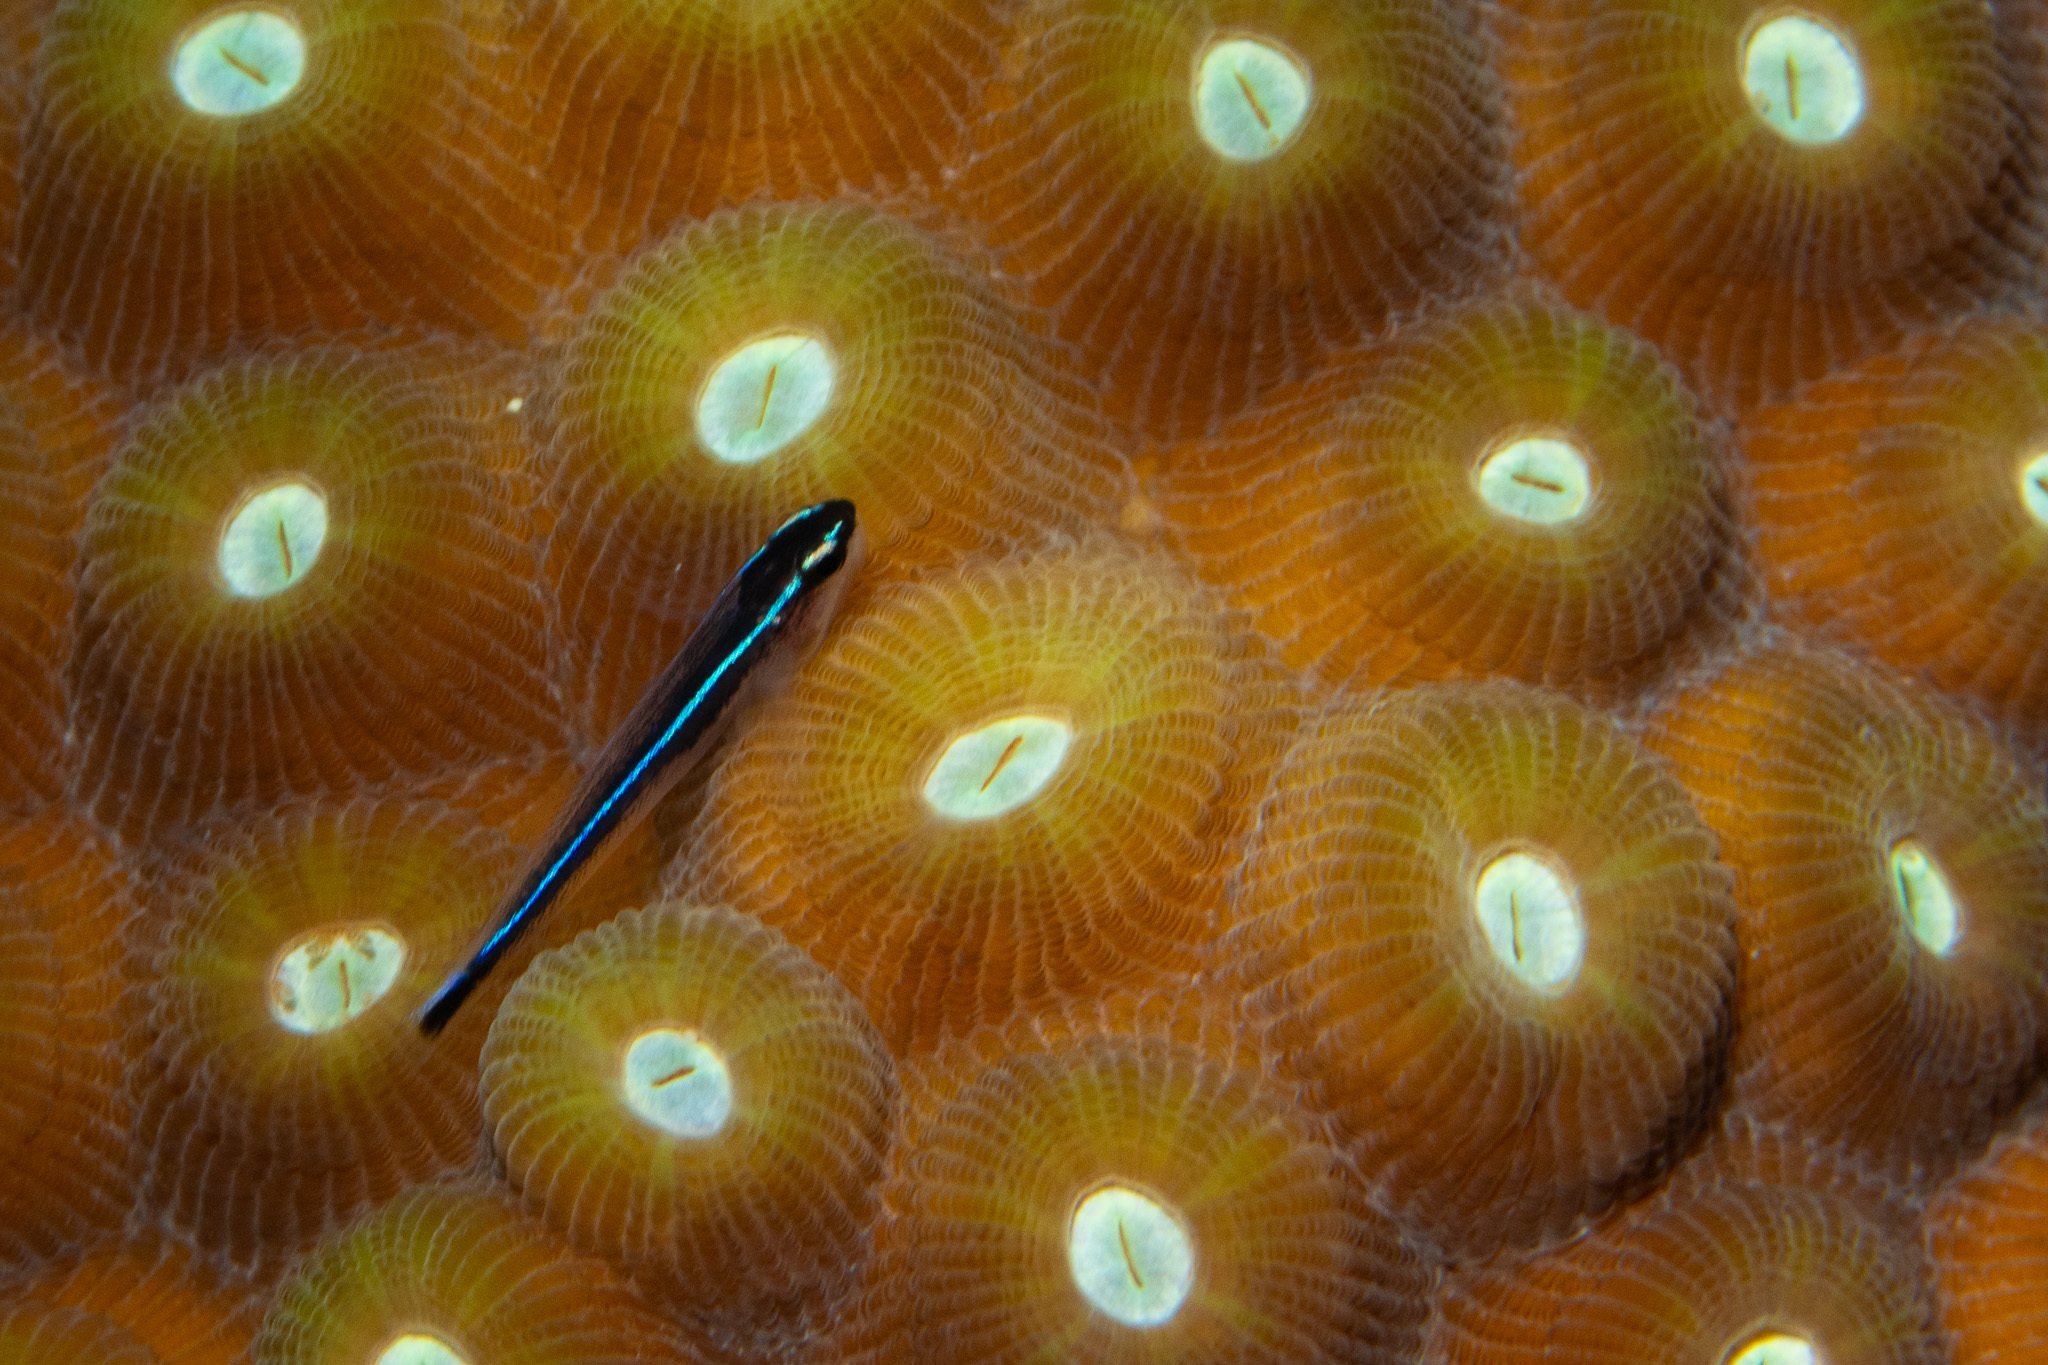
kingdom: Animalia
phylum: Chordata
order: Perciformes
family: Gobiidae
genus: Elacatinus
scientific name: Elacatinus lobeli
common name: Caribbean neon goby
